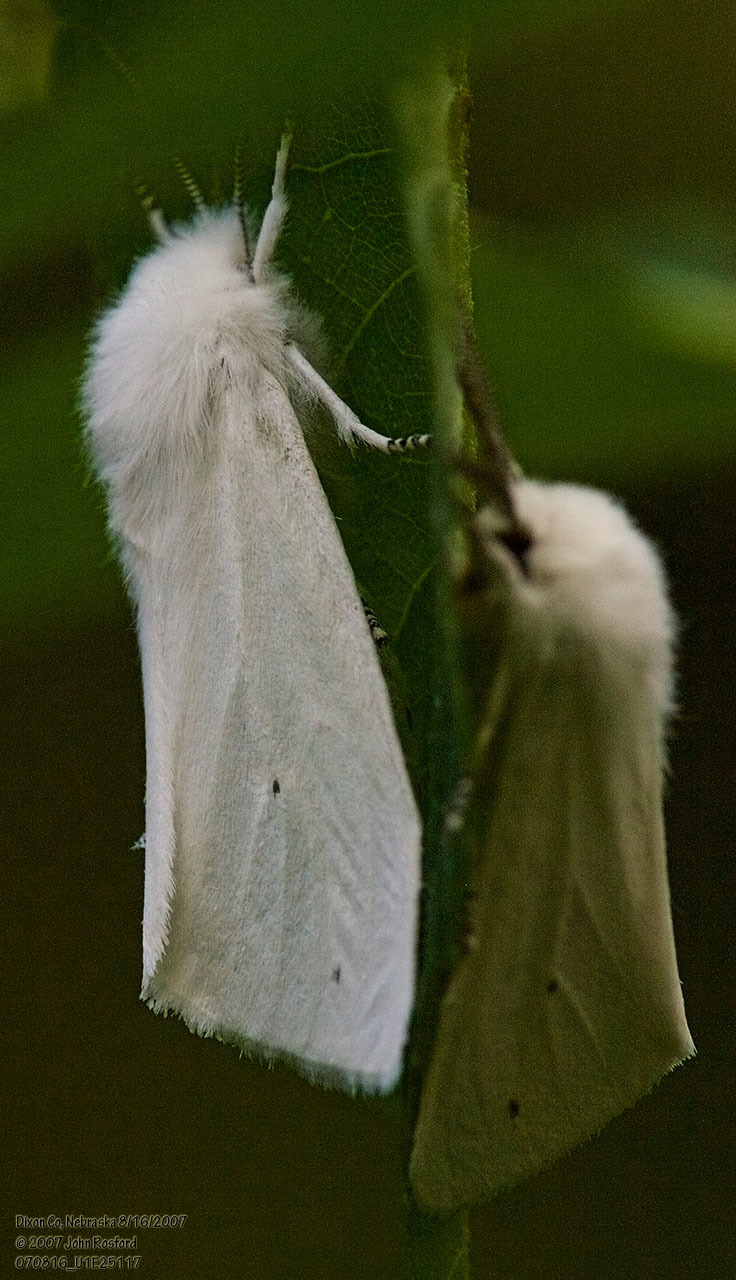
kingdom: Animalia
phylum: Arthropoda
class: Insecta
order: Lepidoptera
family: Erebidae
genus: Spilosoma
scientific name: Spilosoma virginica
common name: Virginia tiger moth
